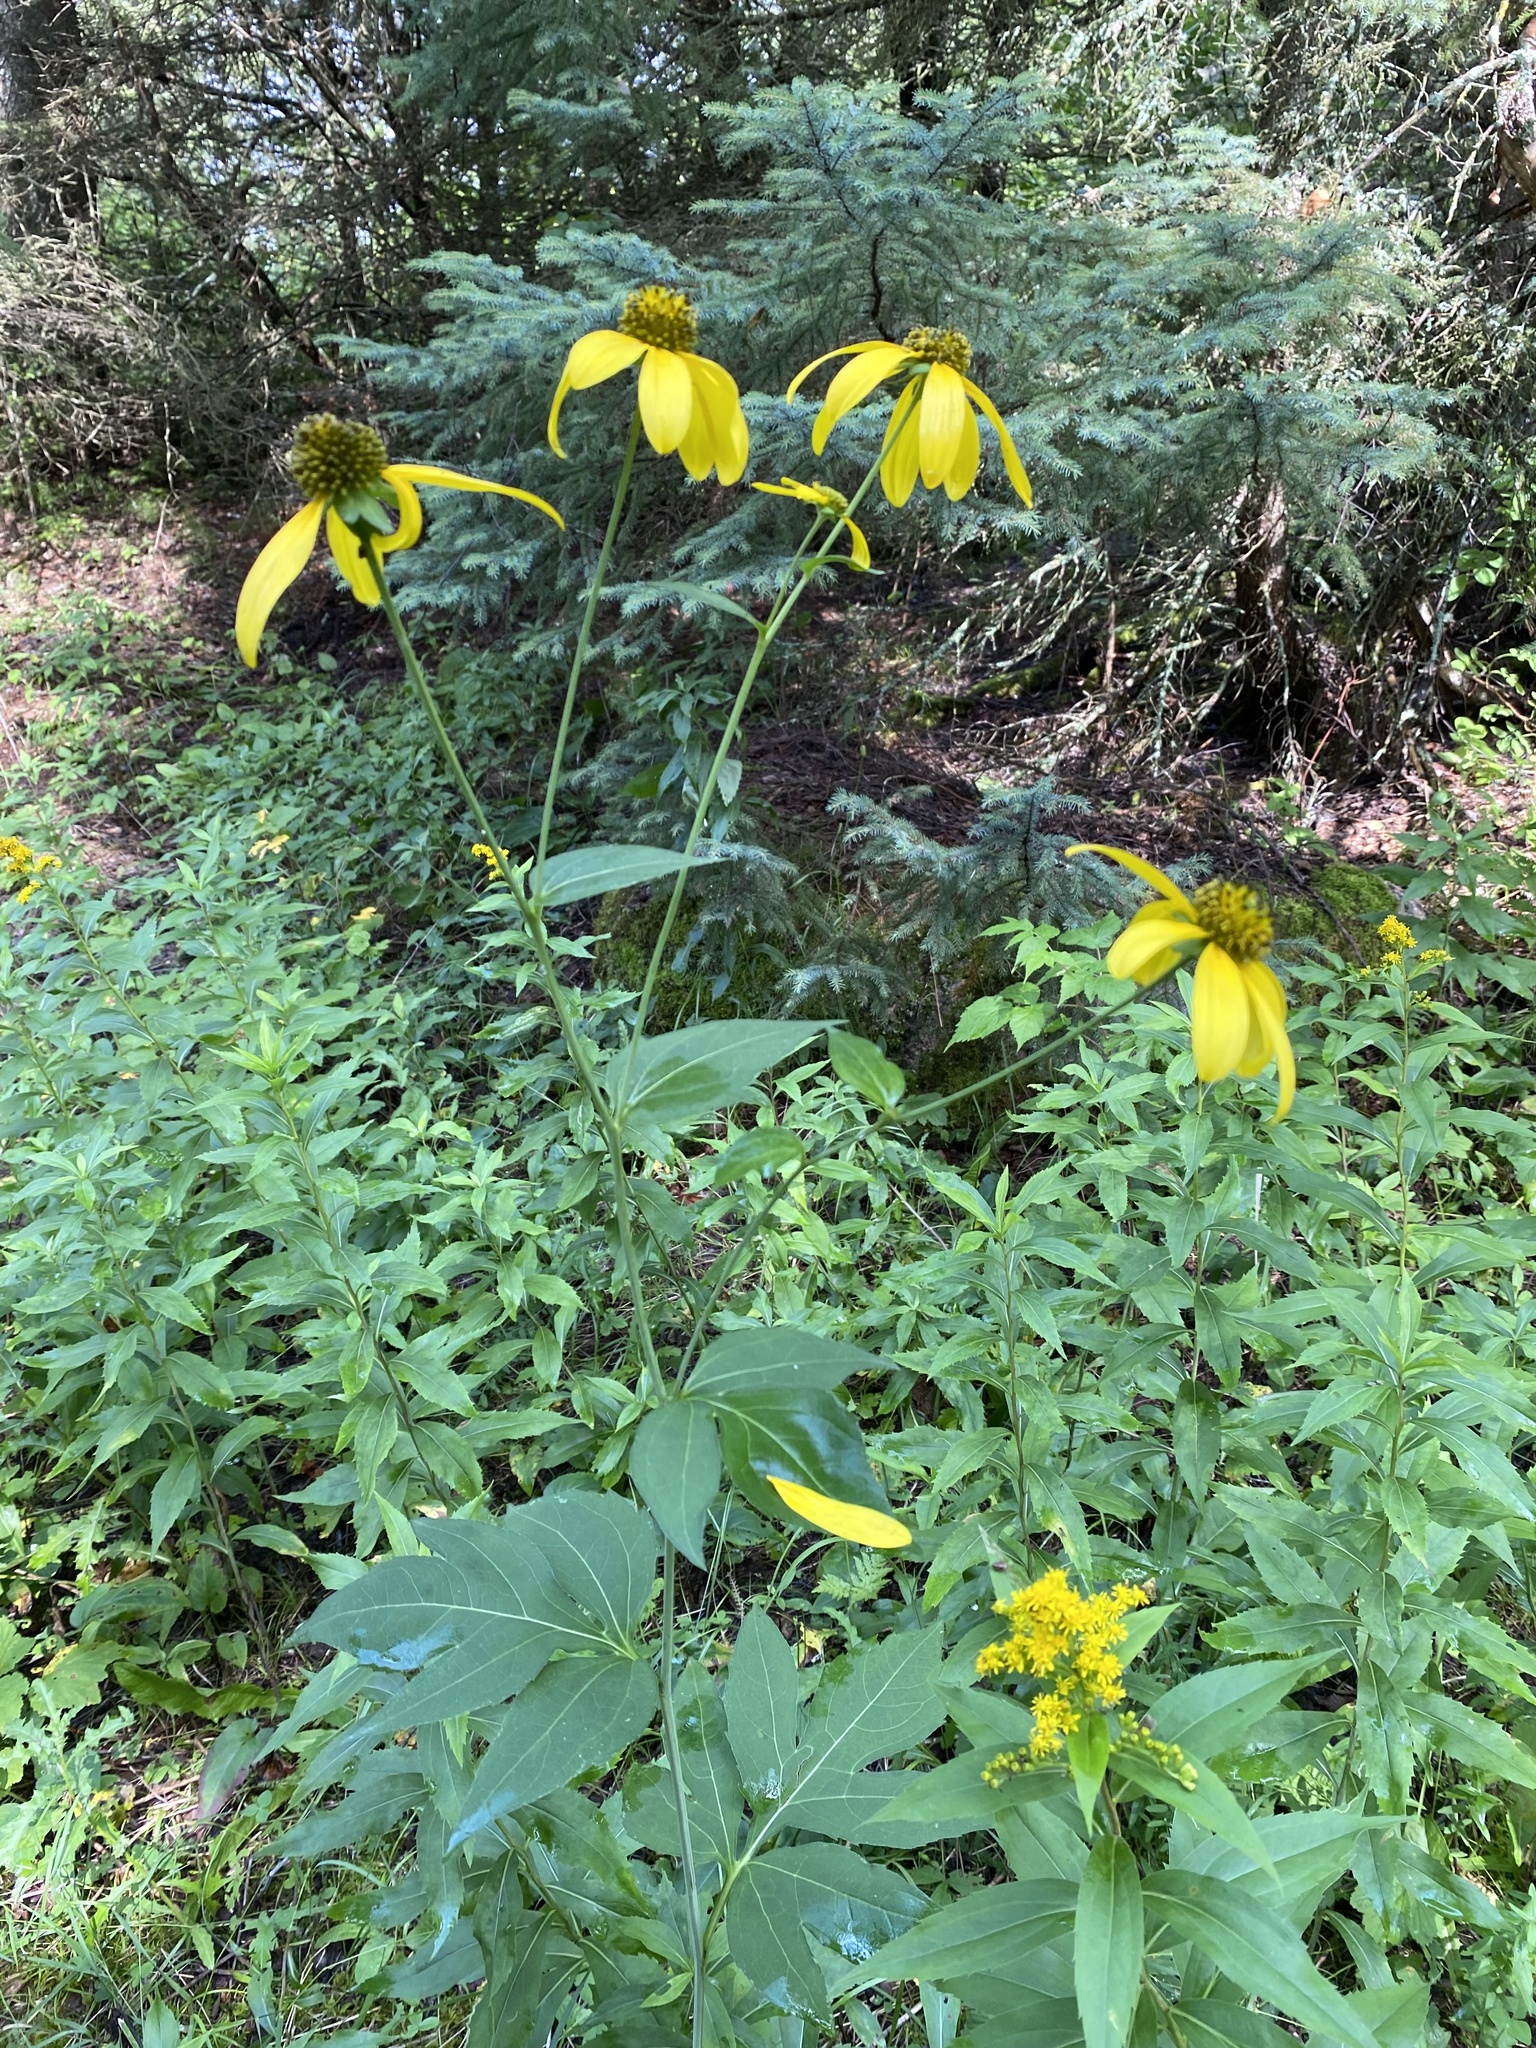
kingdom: Plantae
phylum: Tracheophyta
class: Magnoliopsida
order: Asterales
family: Asteraceae
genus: Rudbeckia
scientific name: Rudbeckia laciniata
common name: Coneflower
